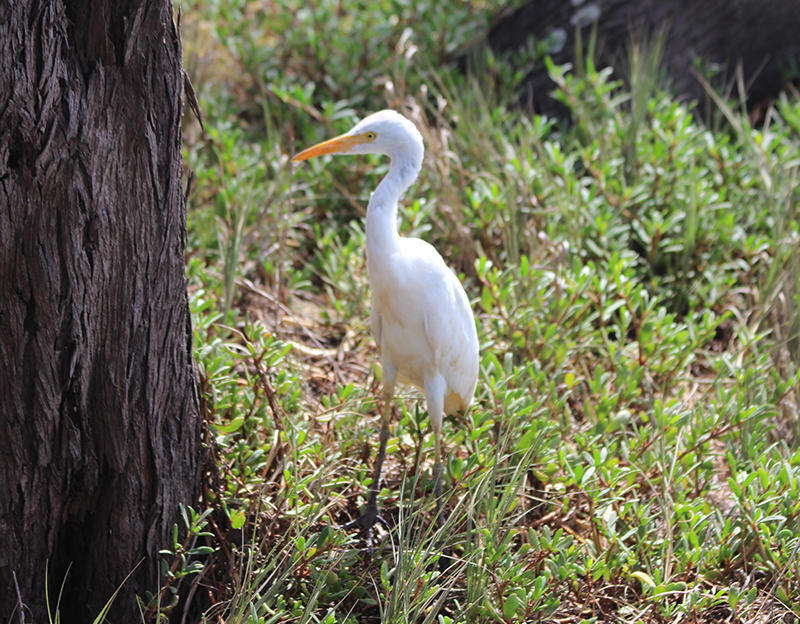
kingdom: Animalia
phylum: Chordata
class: Aves
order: Pelecaniformes
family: Ardeidae
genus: Bubulcus
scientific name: Bubulcus ibis
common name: Cattle egret
